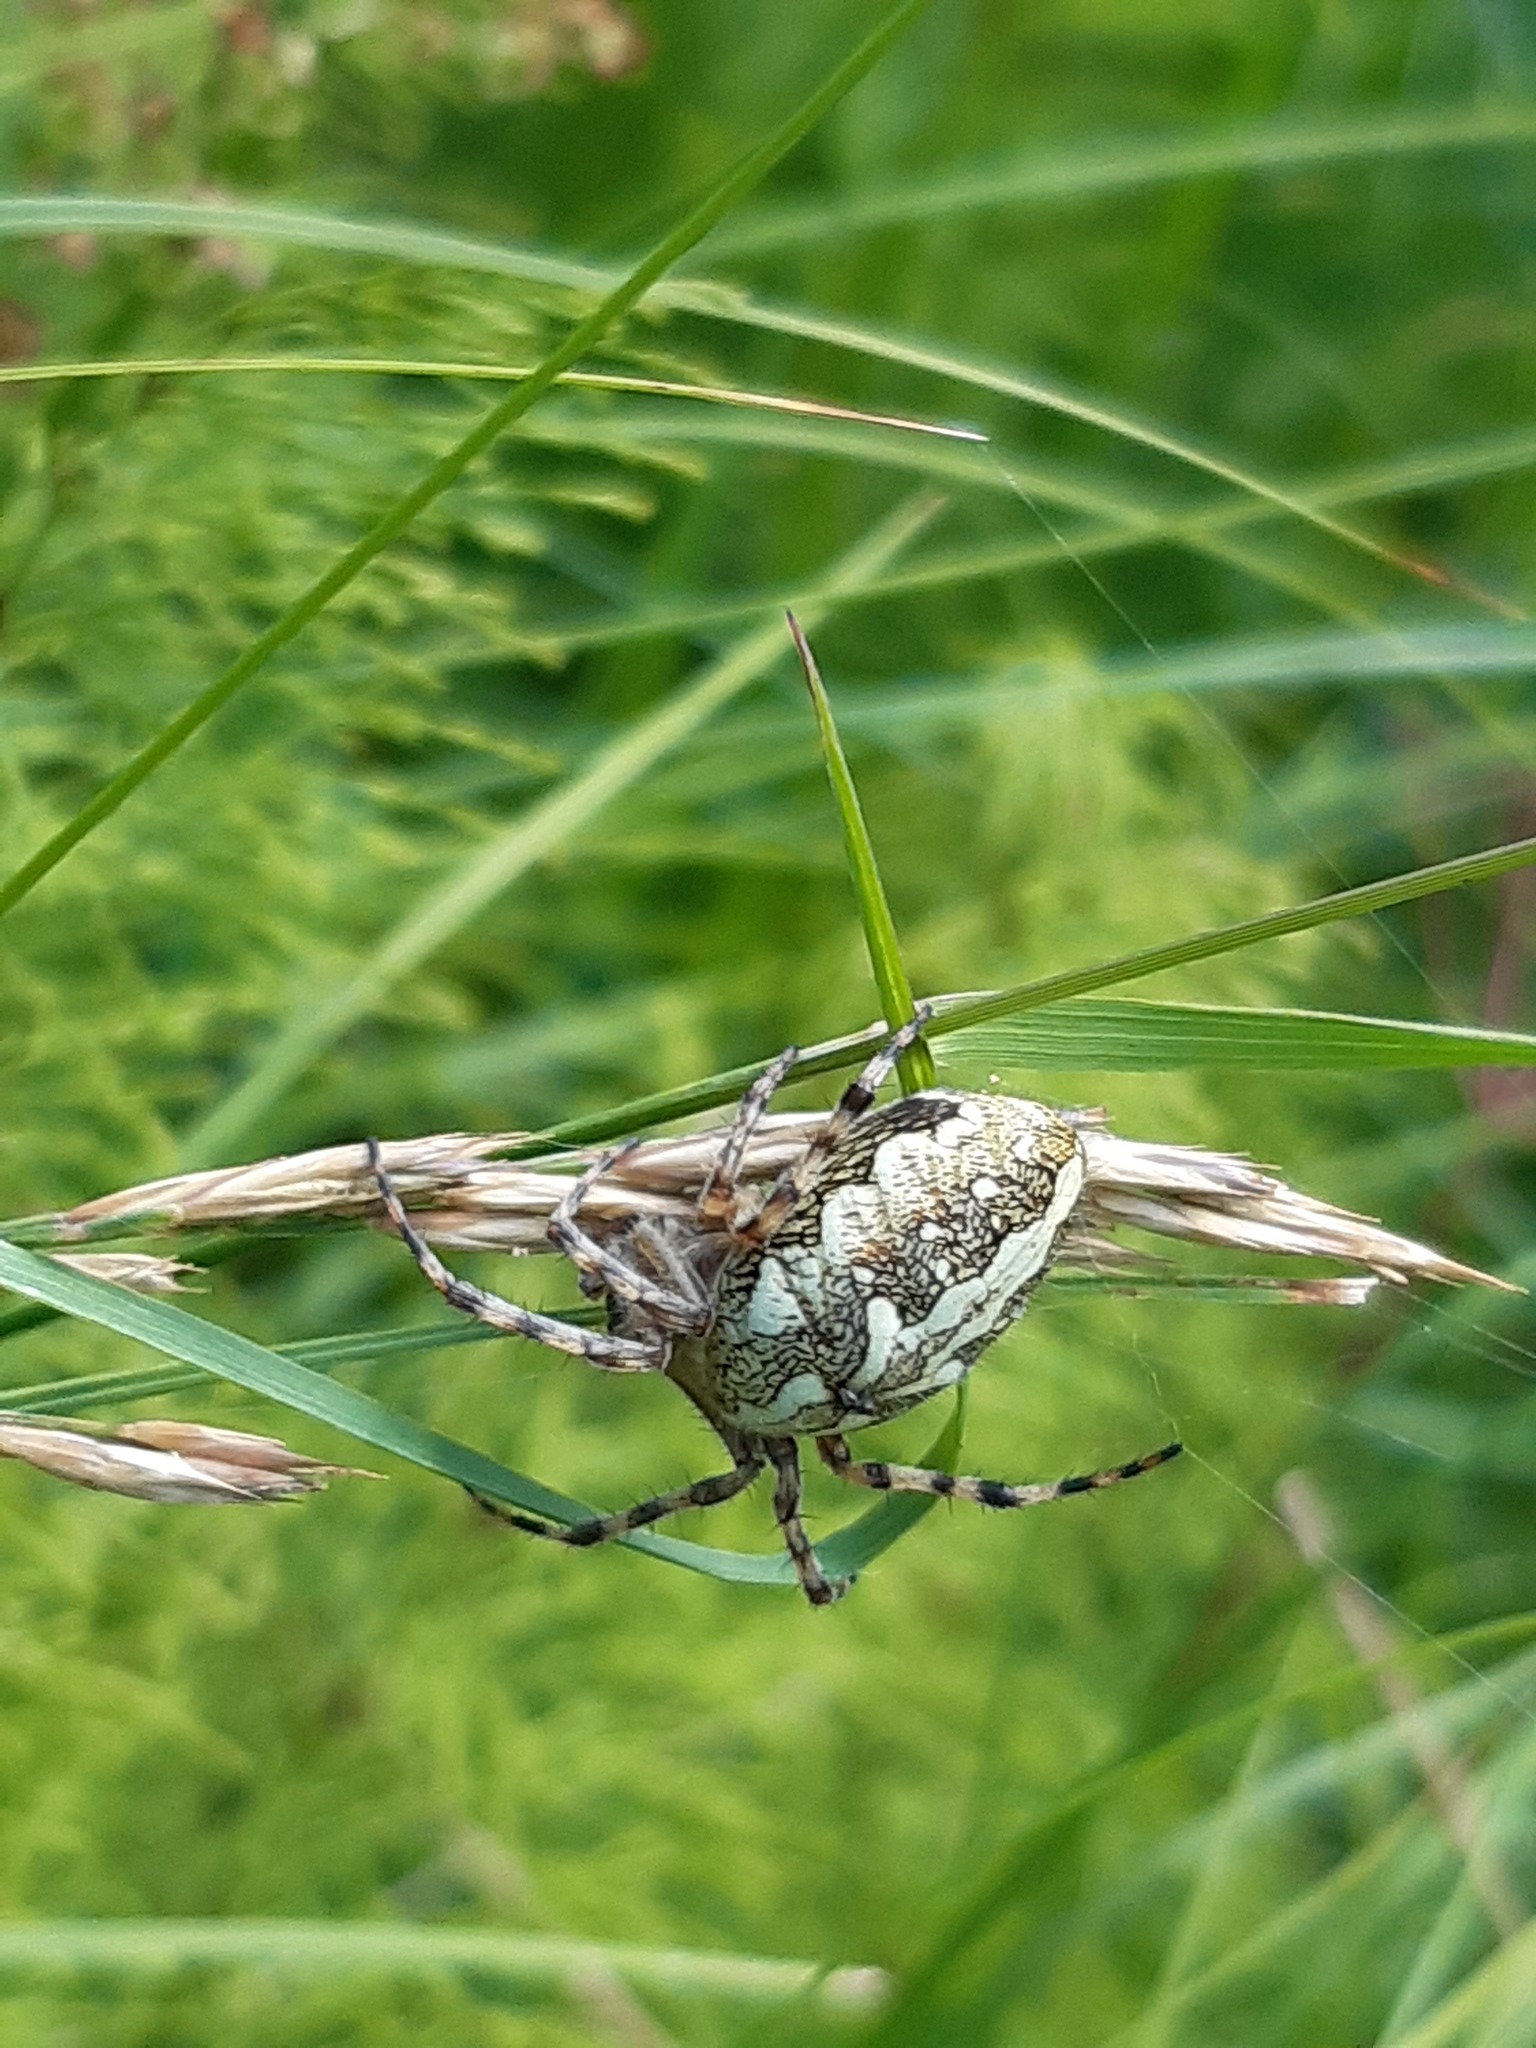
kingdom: Animalia
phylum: Arthropoda
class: Arachnida
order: Araneae
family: Araneidae
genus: Aculepeira
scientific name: Aculepeira ceropegia
